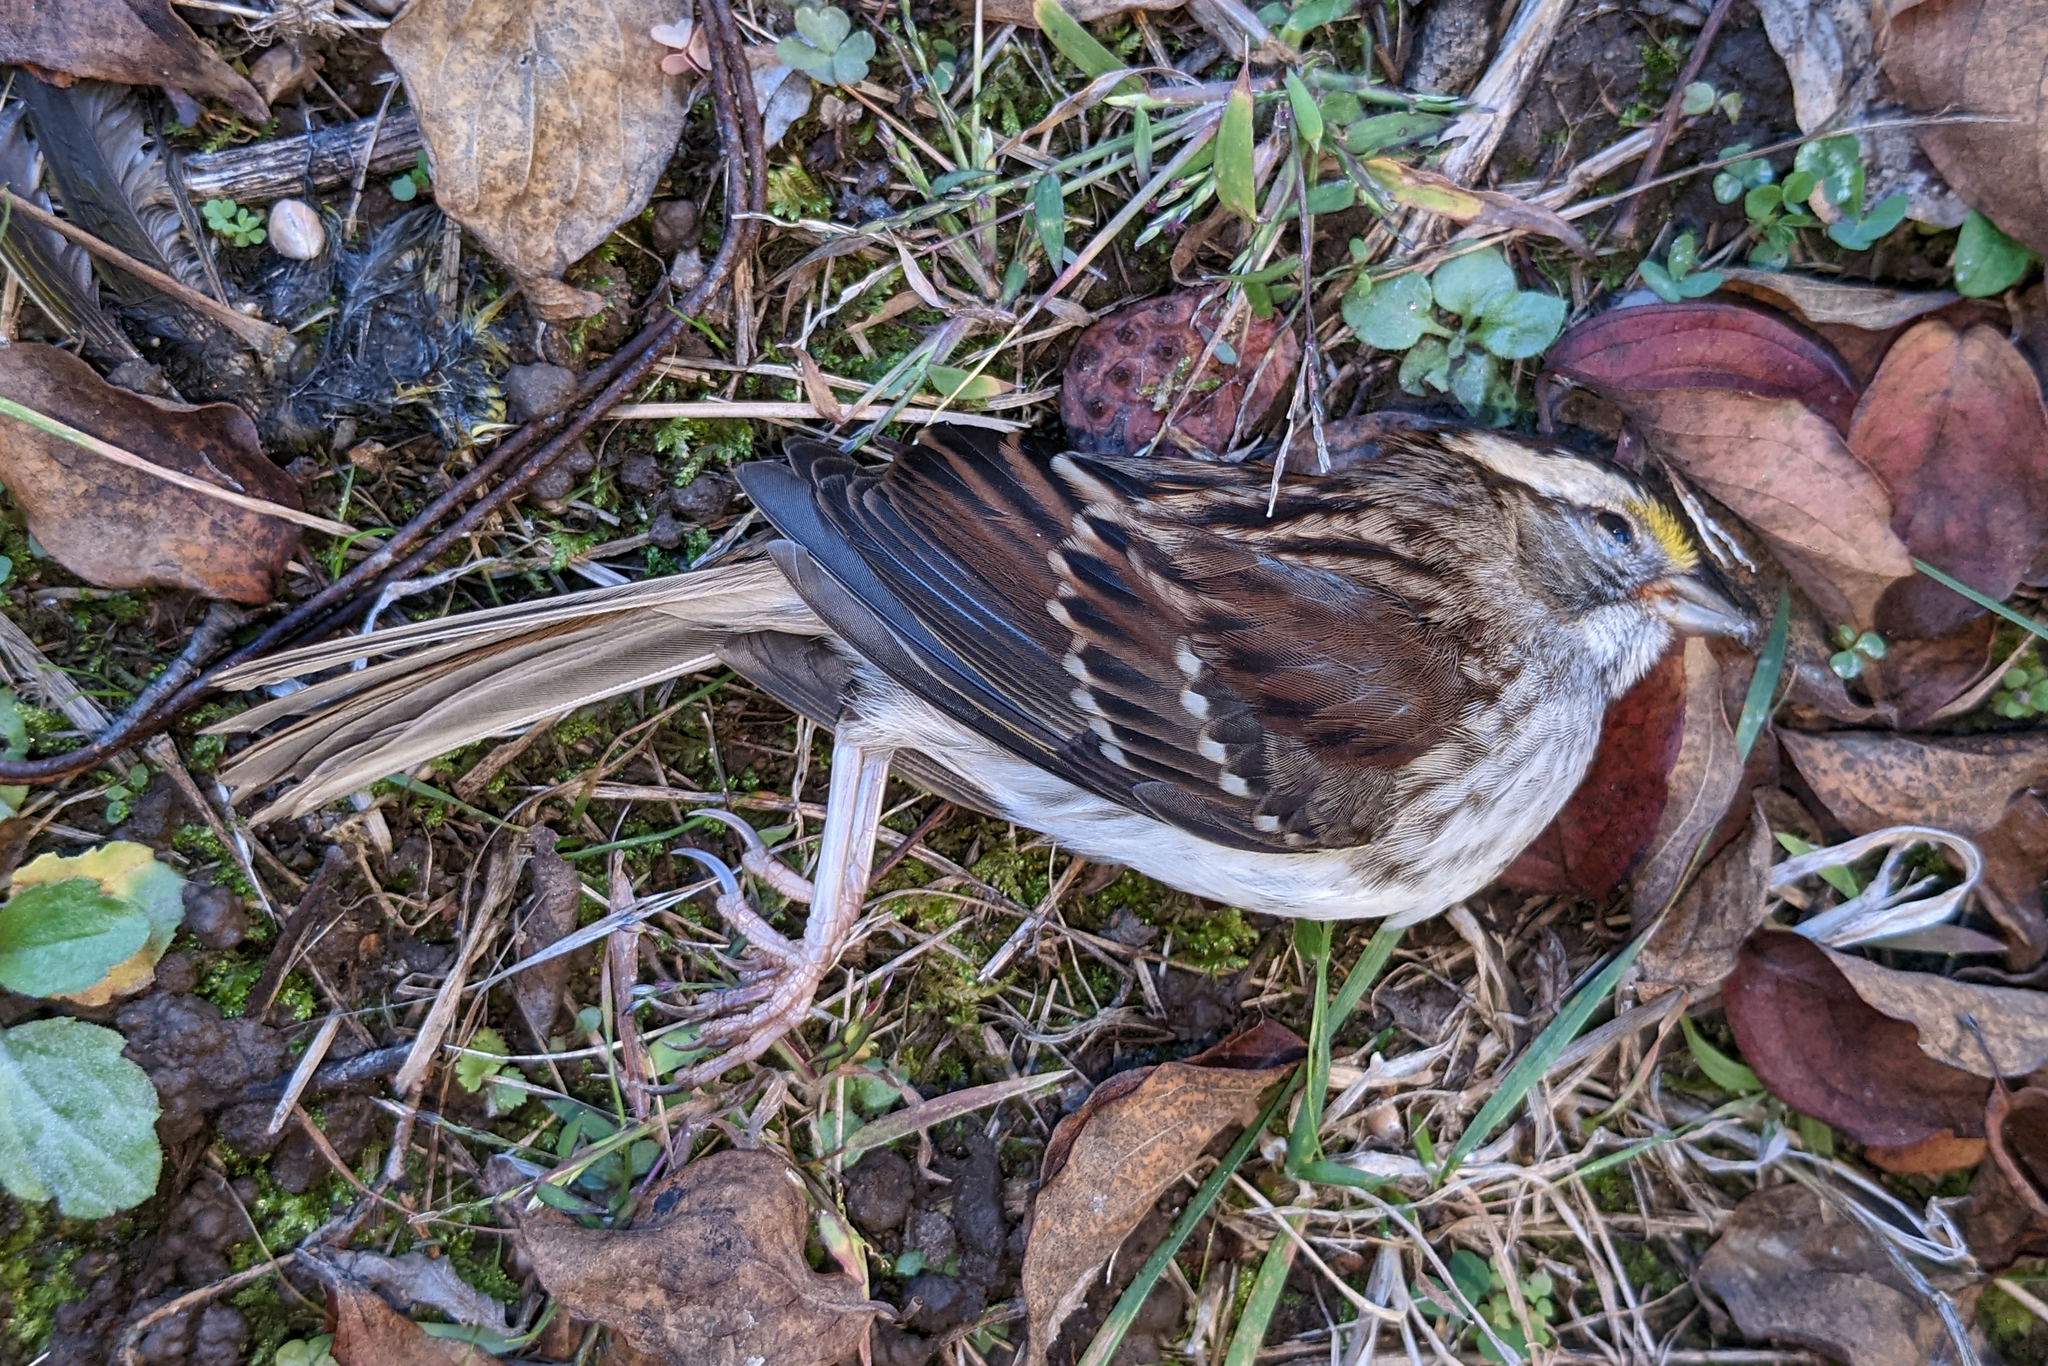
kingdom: Animalia
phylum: Chordata
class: Aves
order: Passeriformes
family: Passerellidae
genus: Zonotrichia
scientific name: Zonotrichia albicollis
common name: White-throated sparrow
